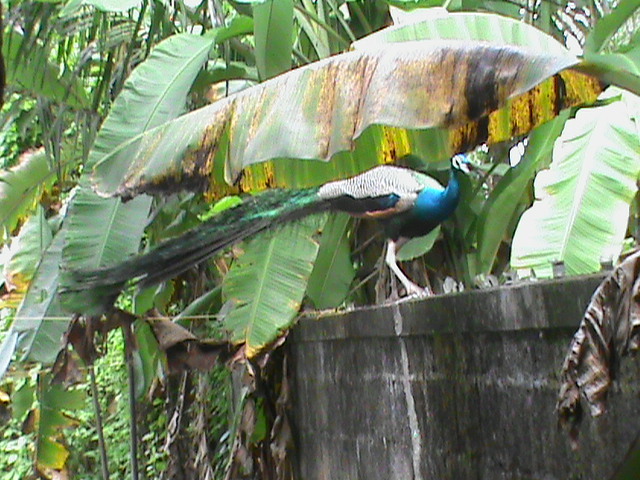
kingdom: Animalia
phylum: Chordata
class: Aves
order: Galliformes
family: Phasianidae
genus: Pavo
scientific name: Pavo cristatus
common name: Indian peafowl
